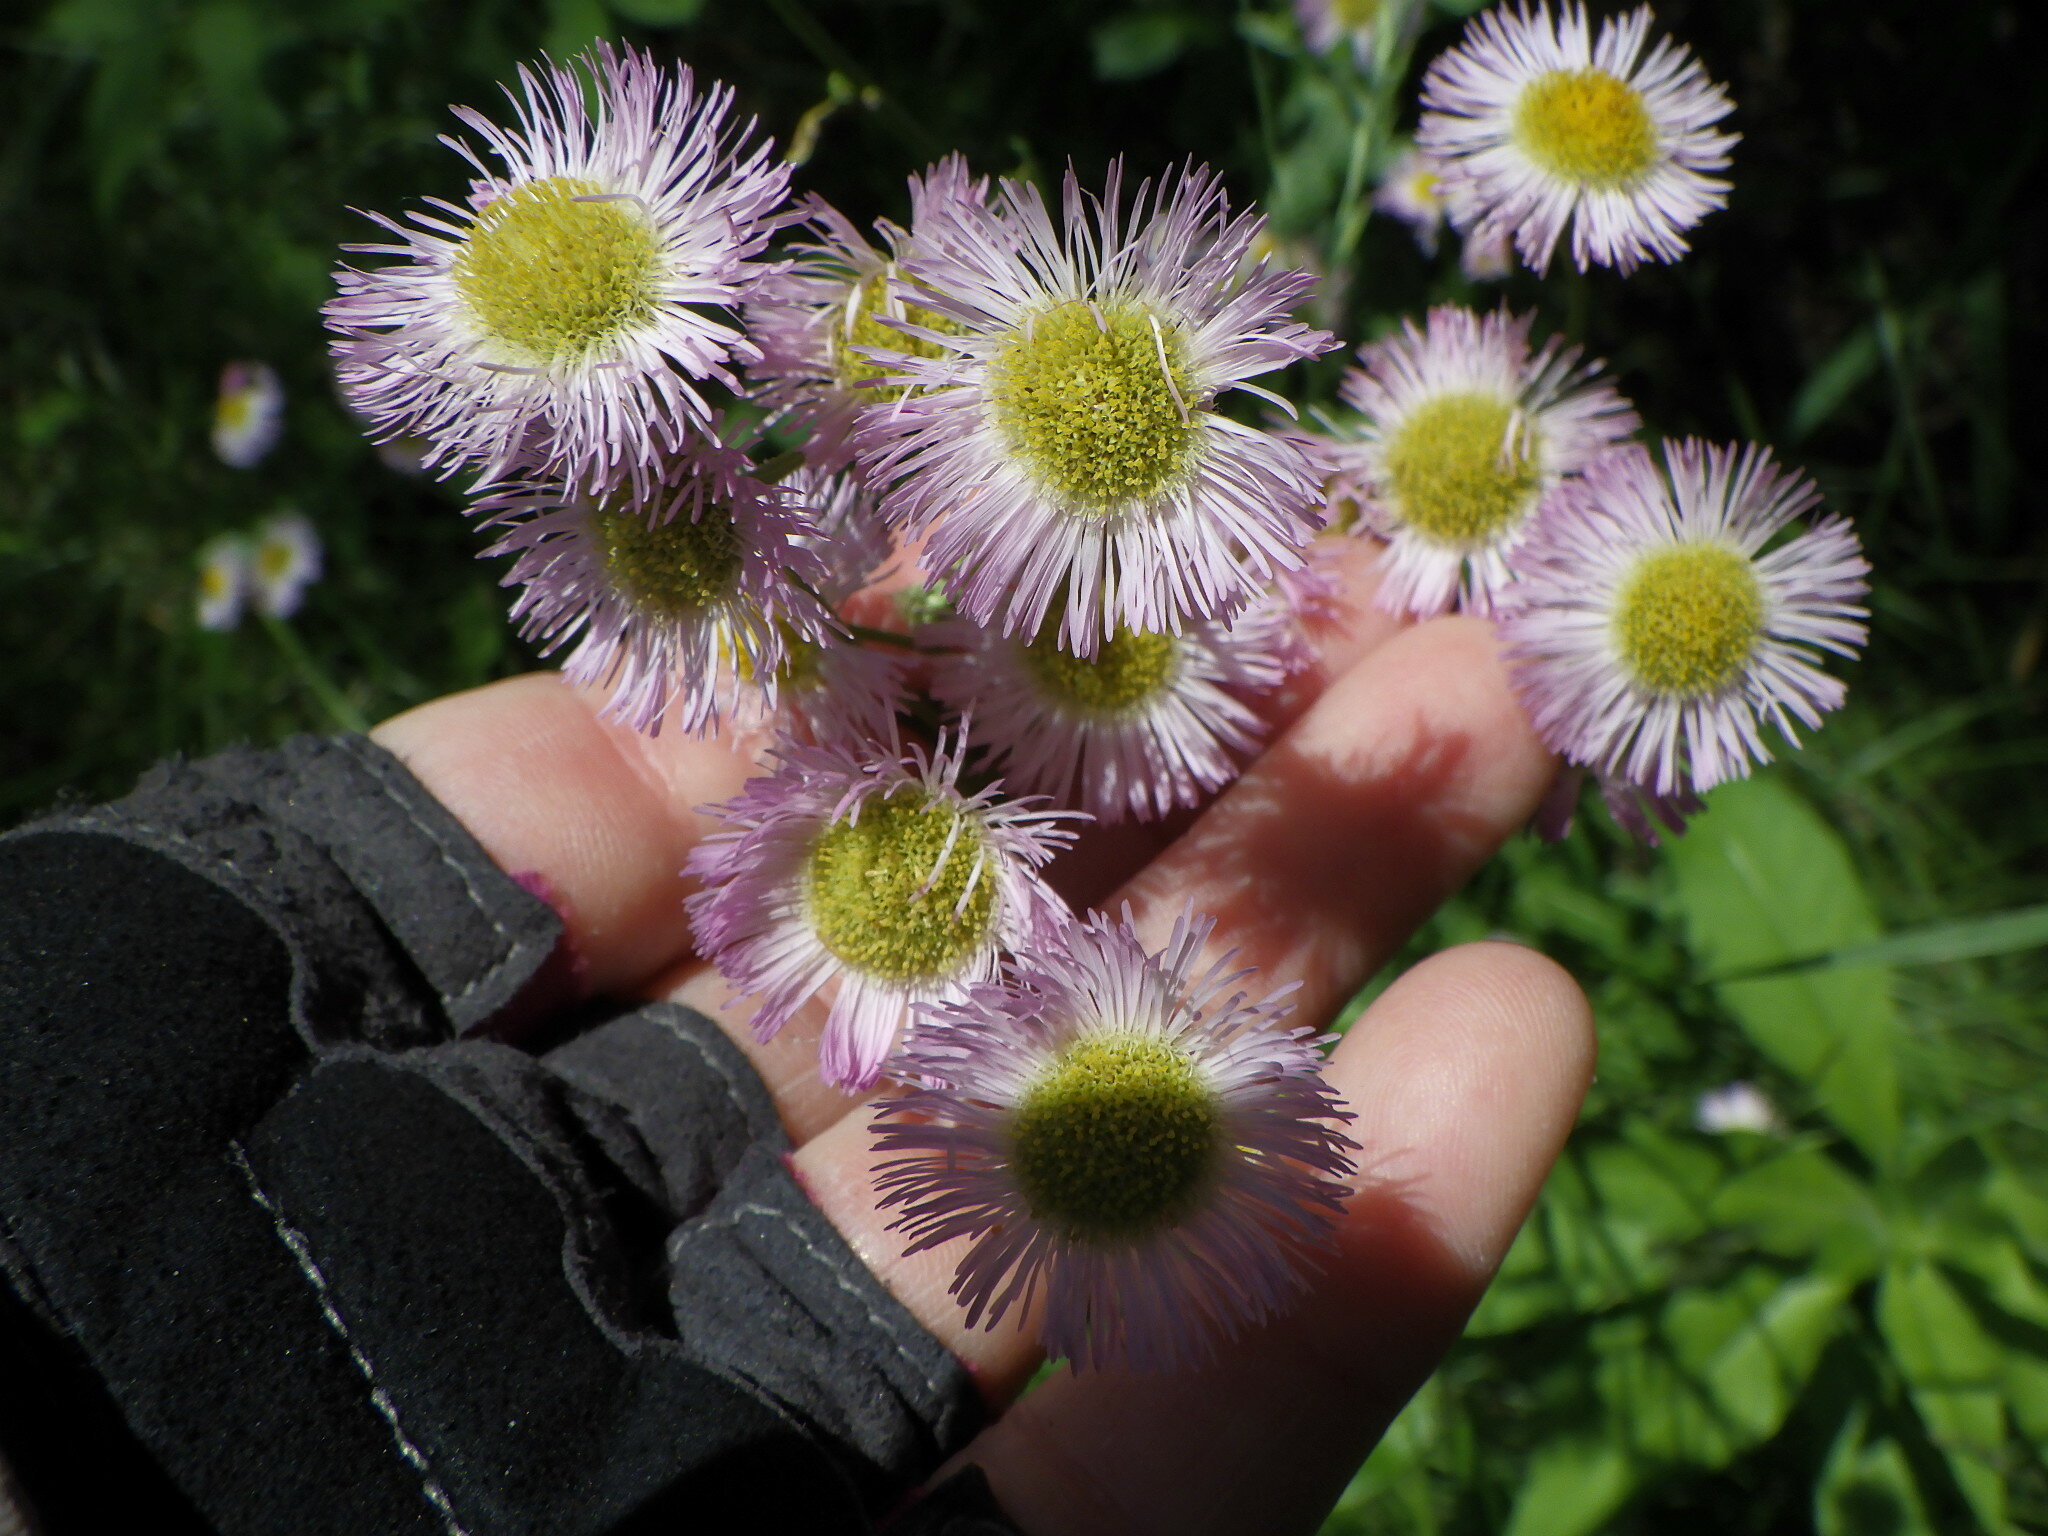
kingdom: Plantae
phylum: Tracheophyta
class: Magnoliopsida
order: Asterales
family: Asteraceae
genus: Erigeron
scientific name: Erigeron philadelphicus
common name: Robin's-plantain
